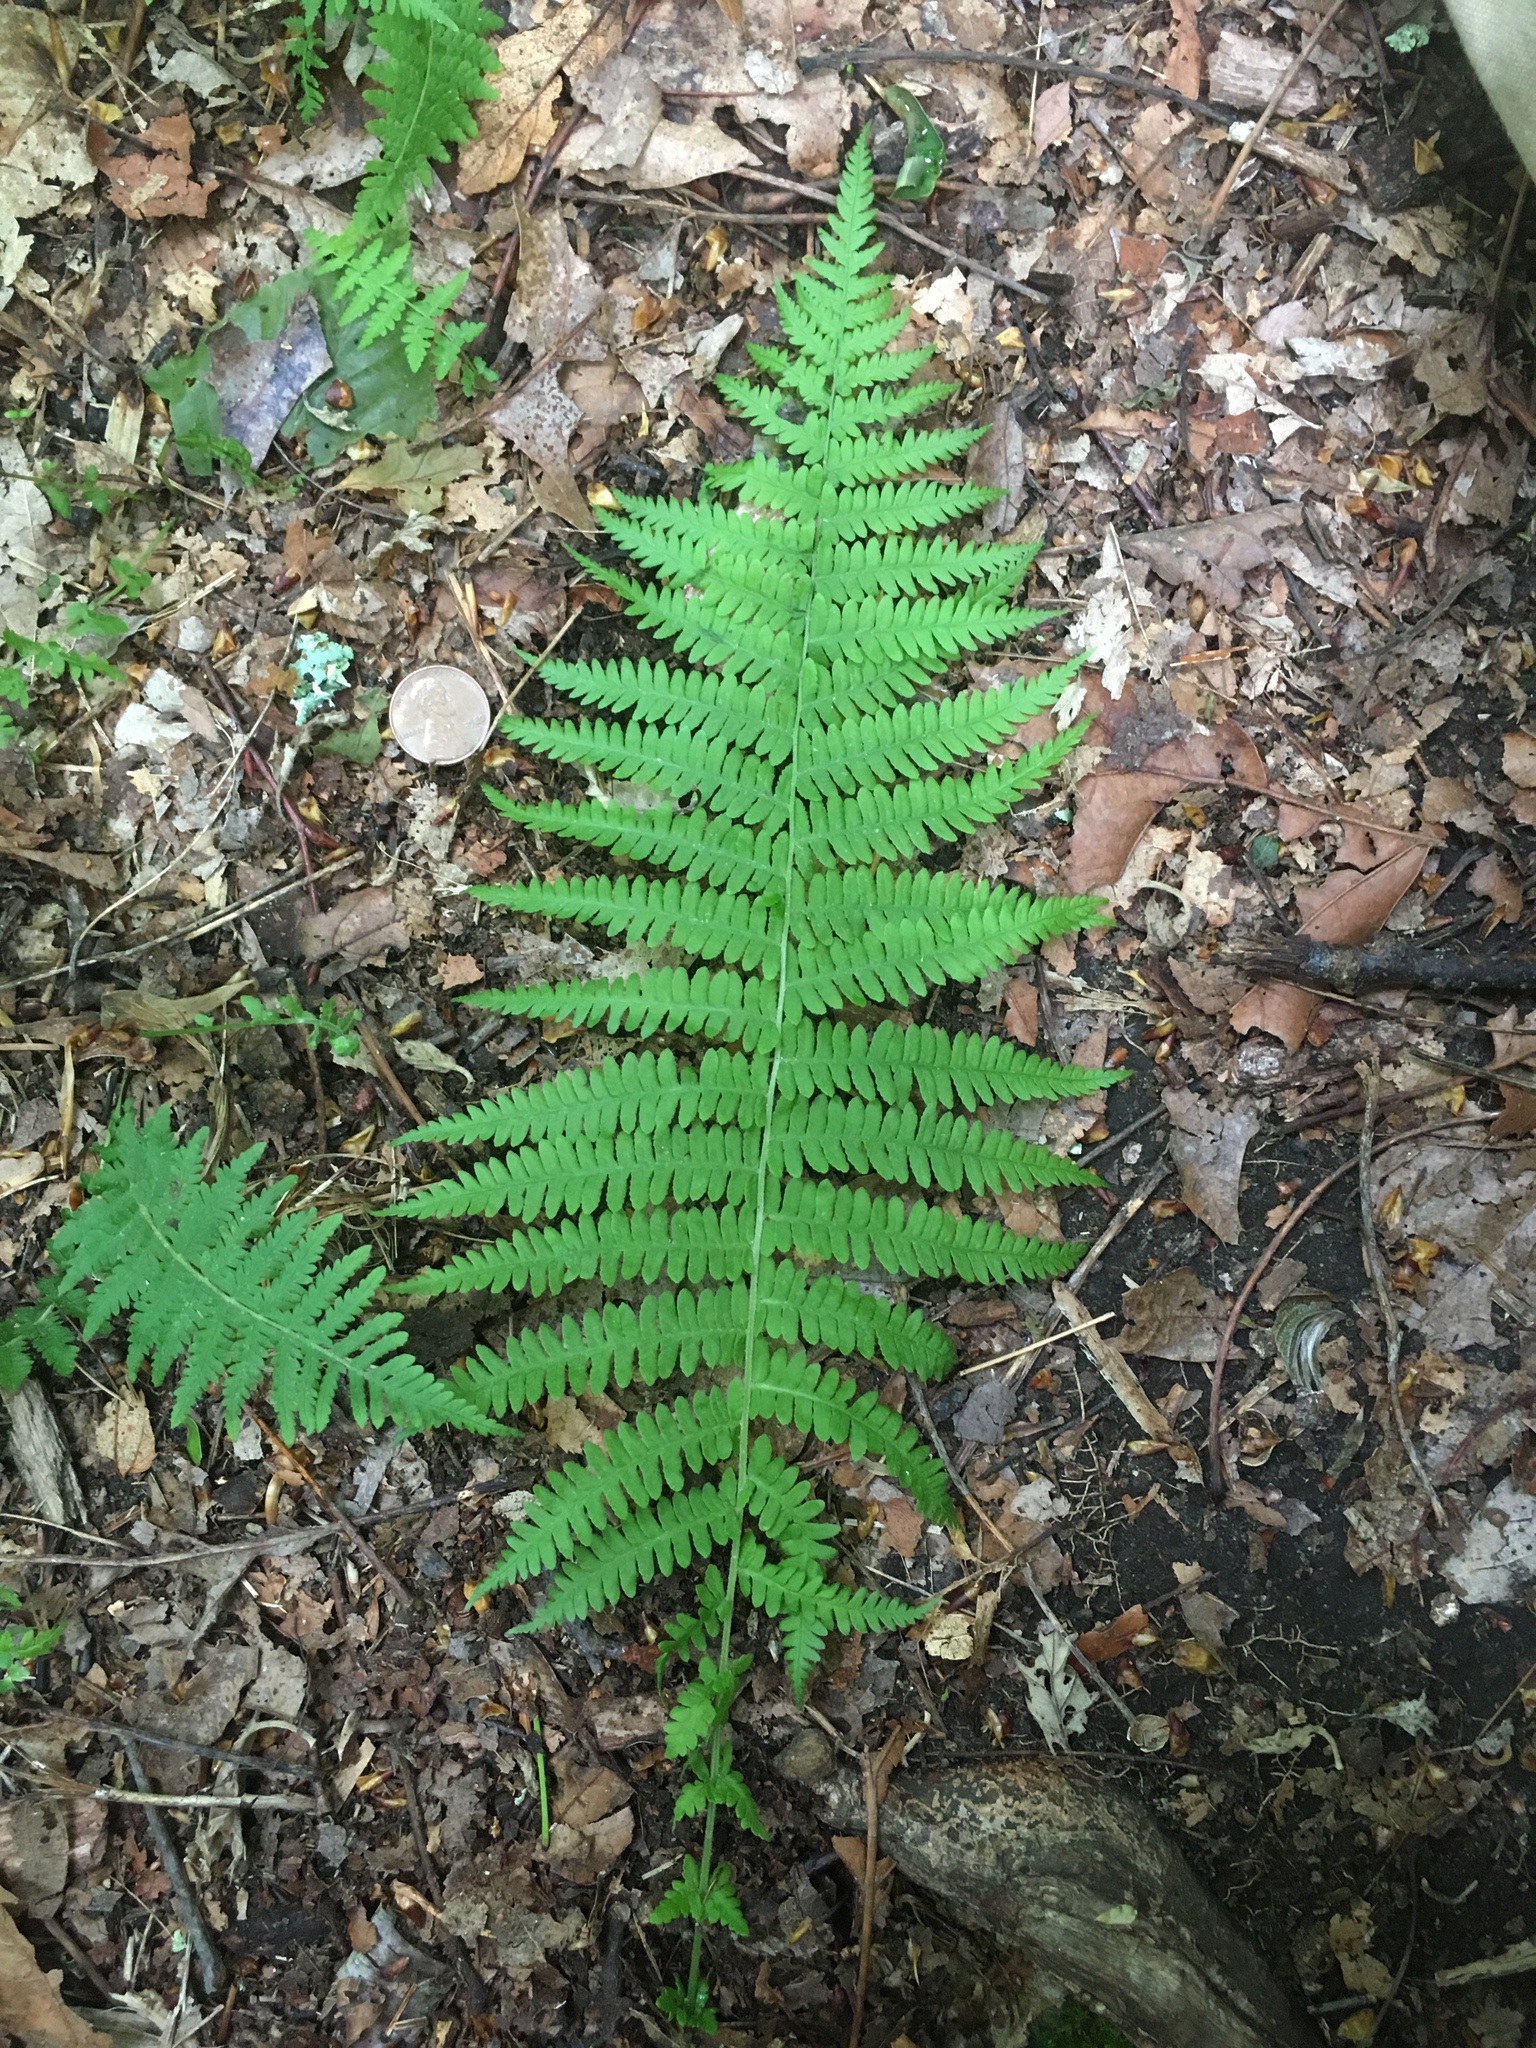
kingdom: Plantae
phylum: Tracheophyta
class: Polypodiopsida
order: Polypodiales
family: Thelypteridaceae
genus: Amauropelta
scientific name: Amauropelta noveboracensis
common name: New york fern
